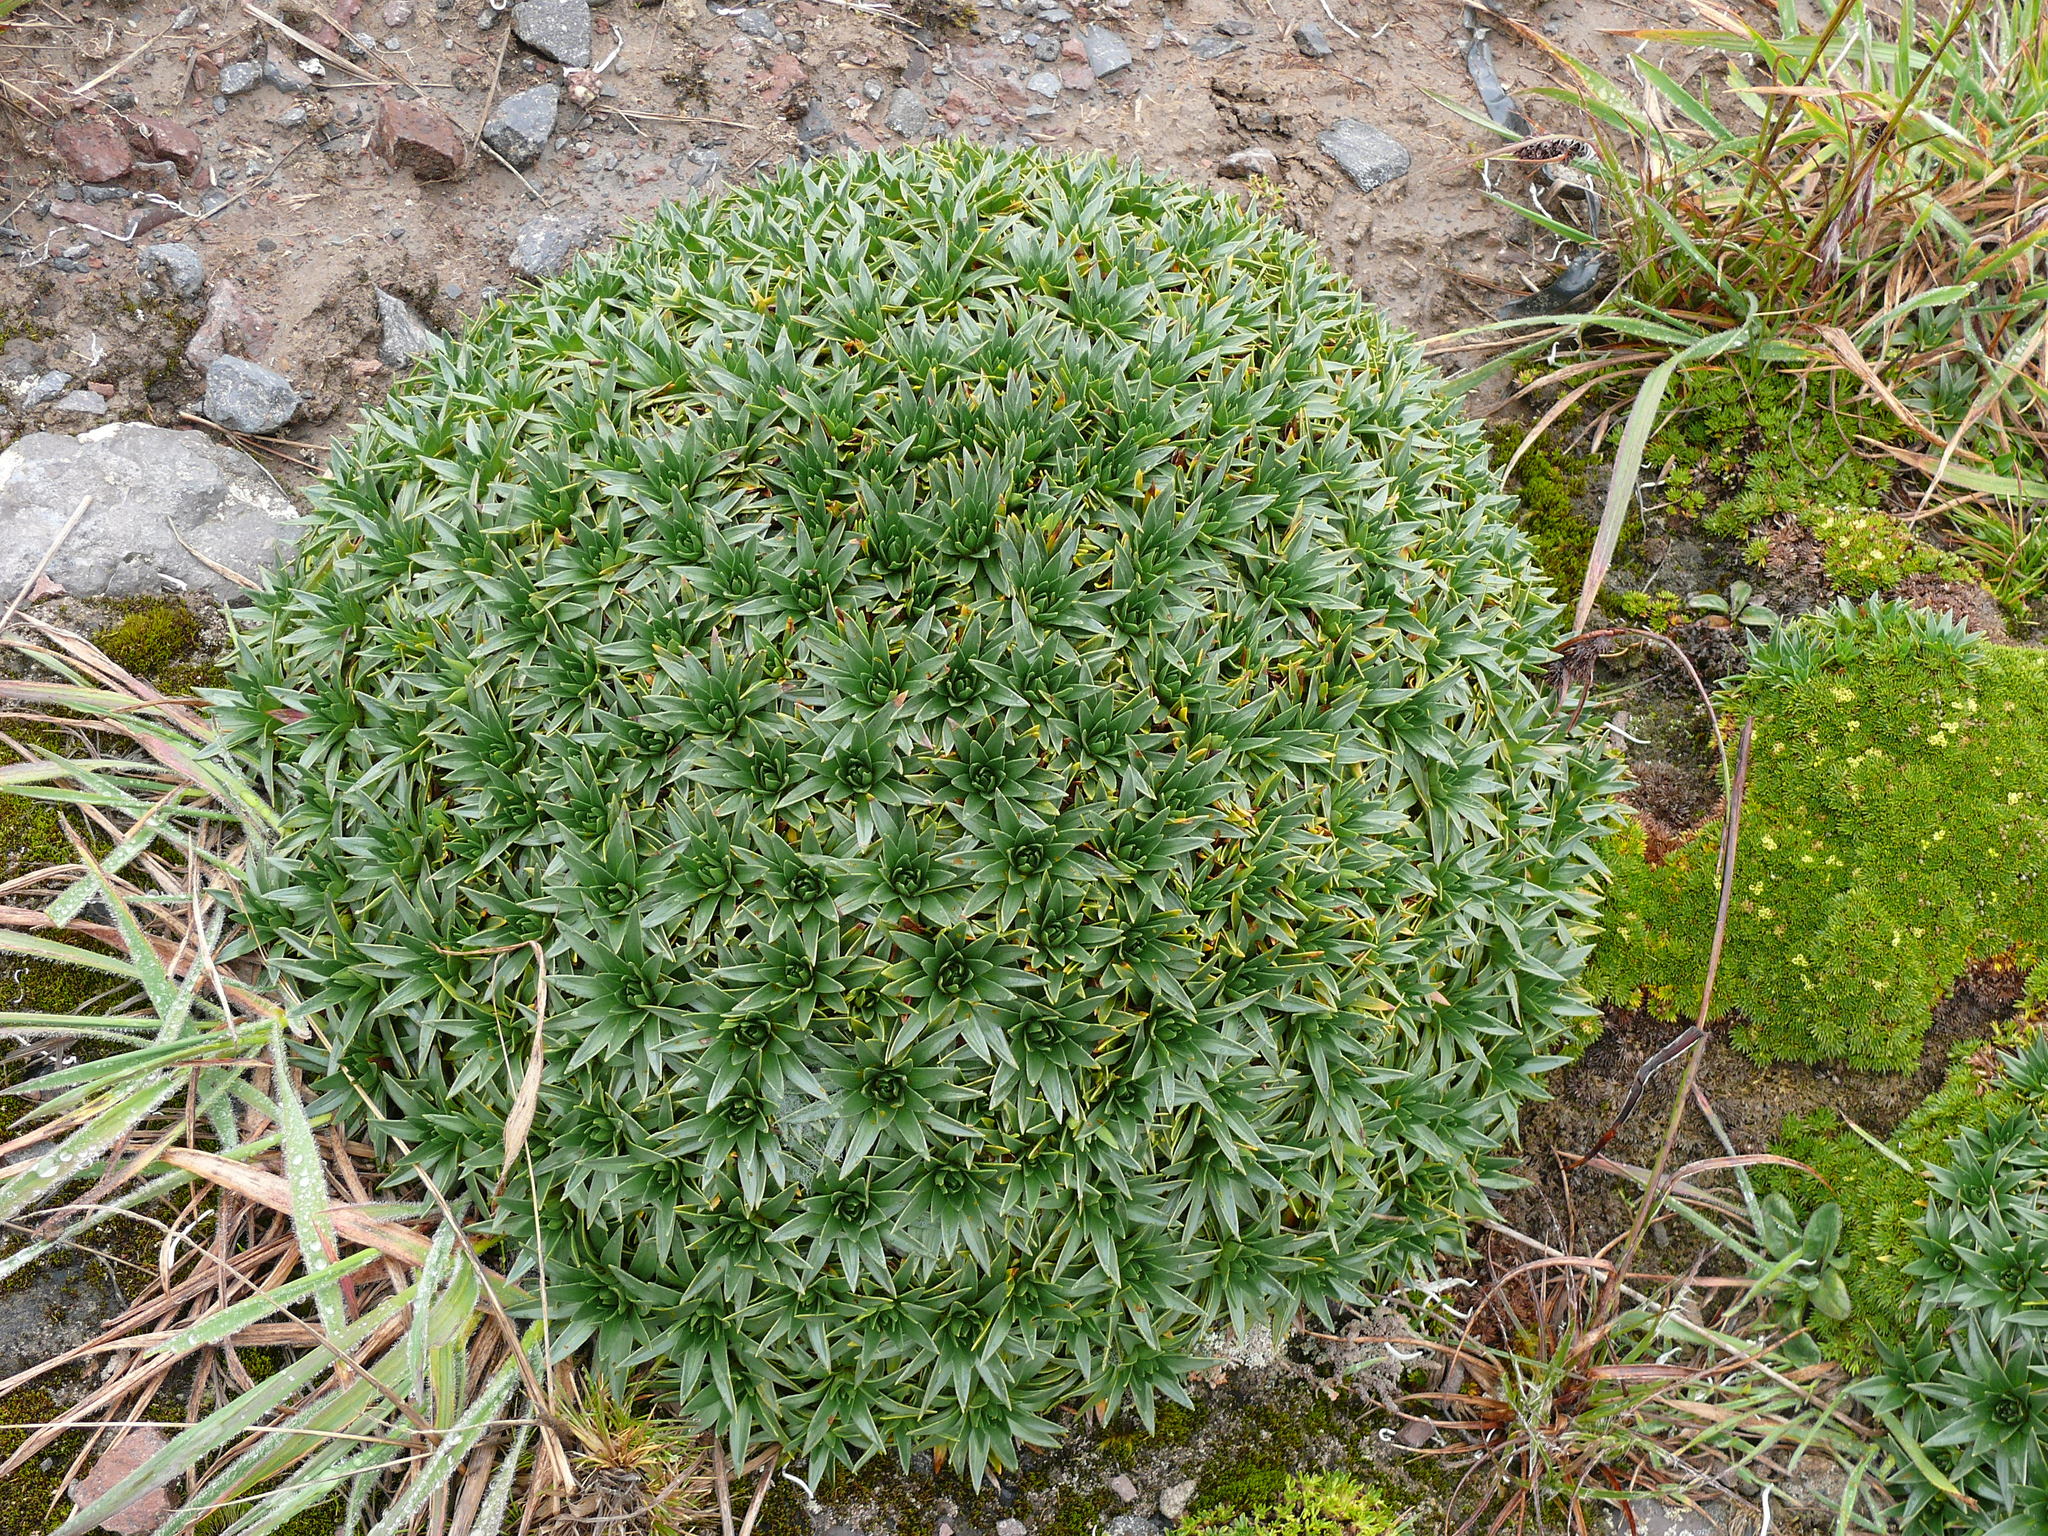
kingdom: Plantae
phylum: Tracheophyta
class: Magnoliopsida
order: Lamiales
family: Plantaginaceae
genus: Plantago
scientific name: Plantago rigida
